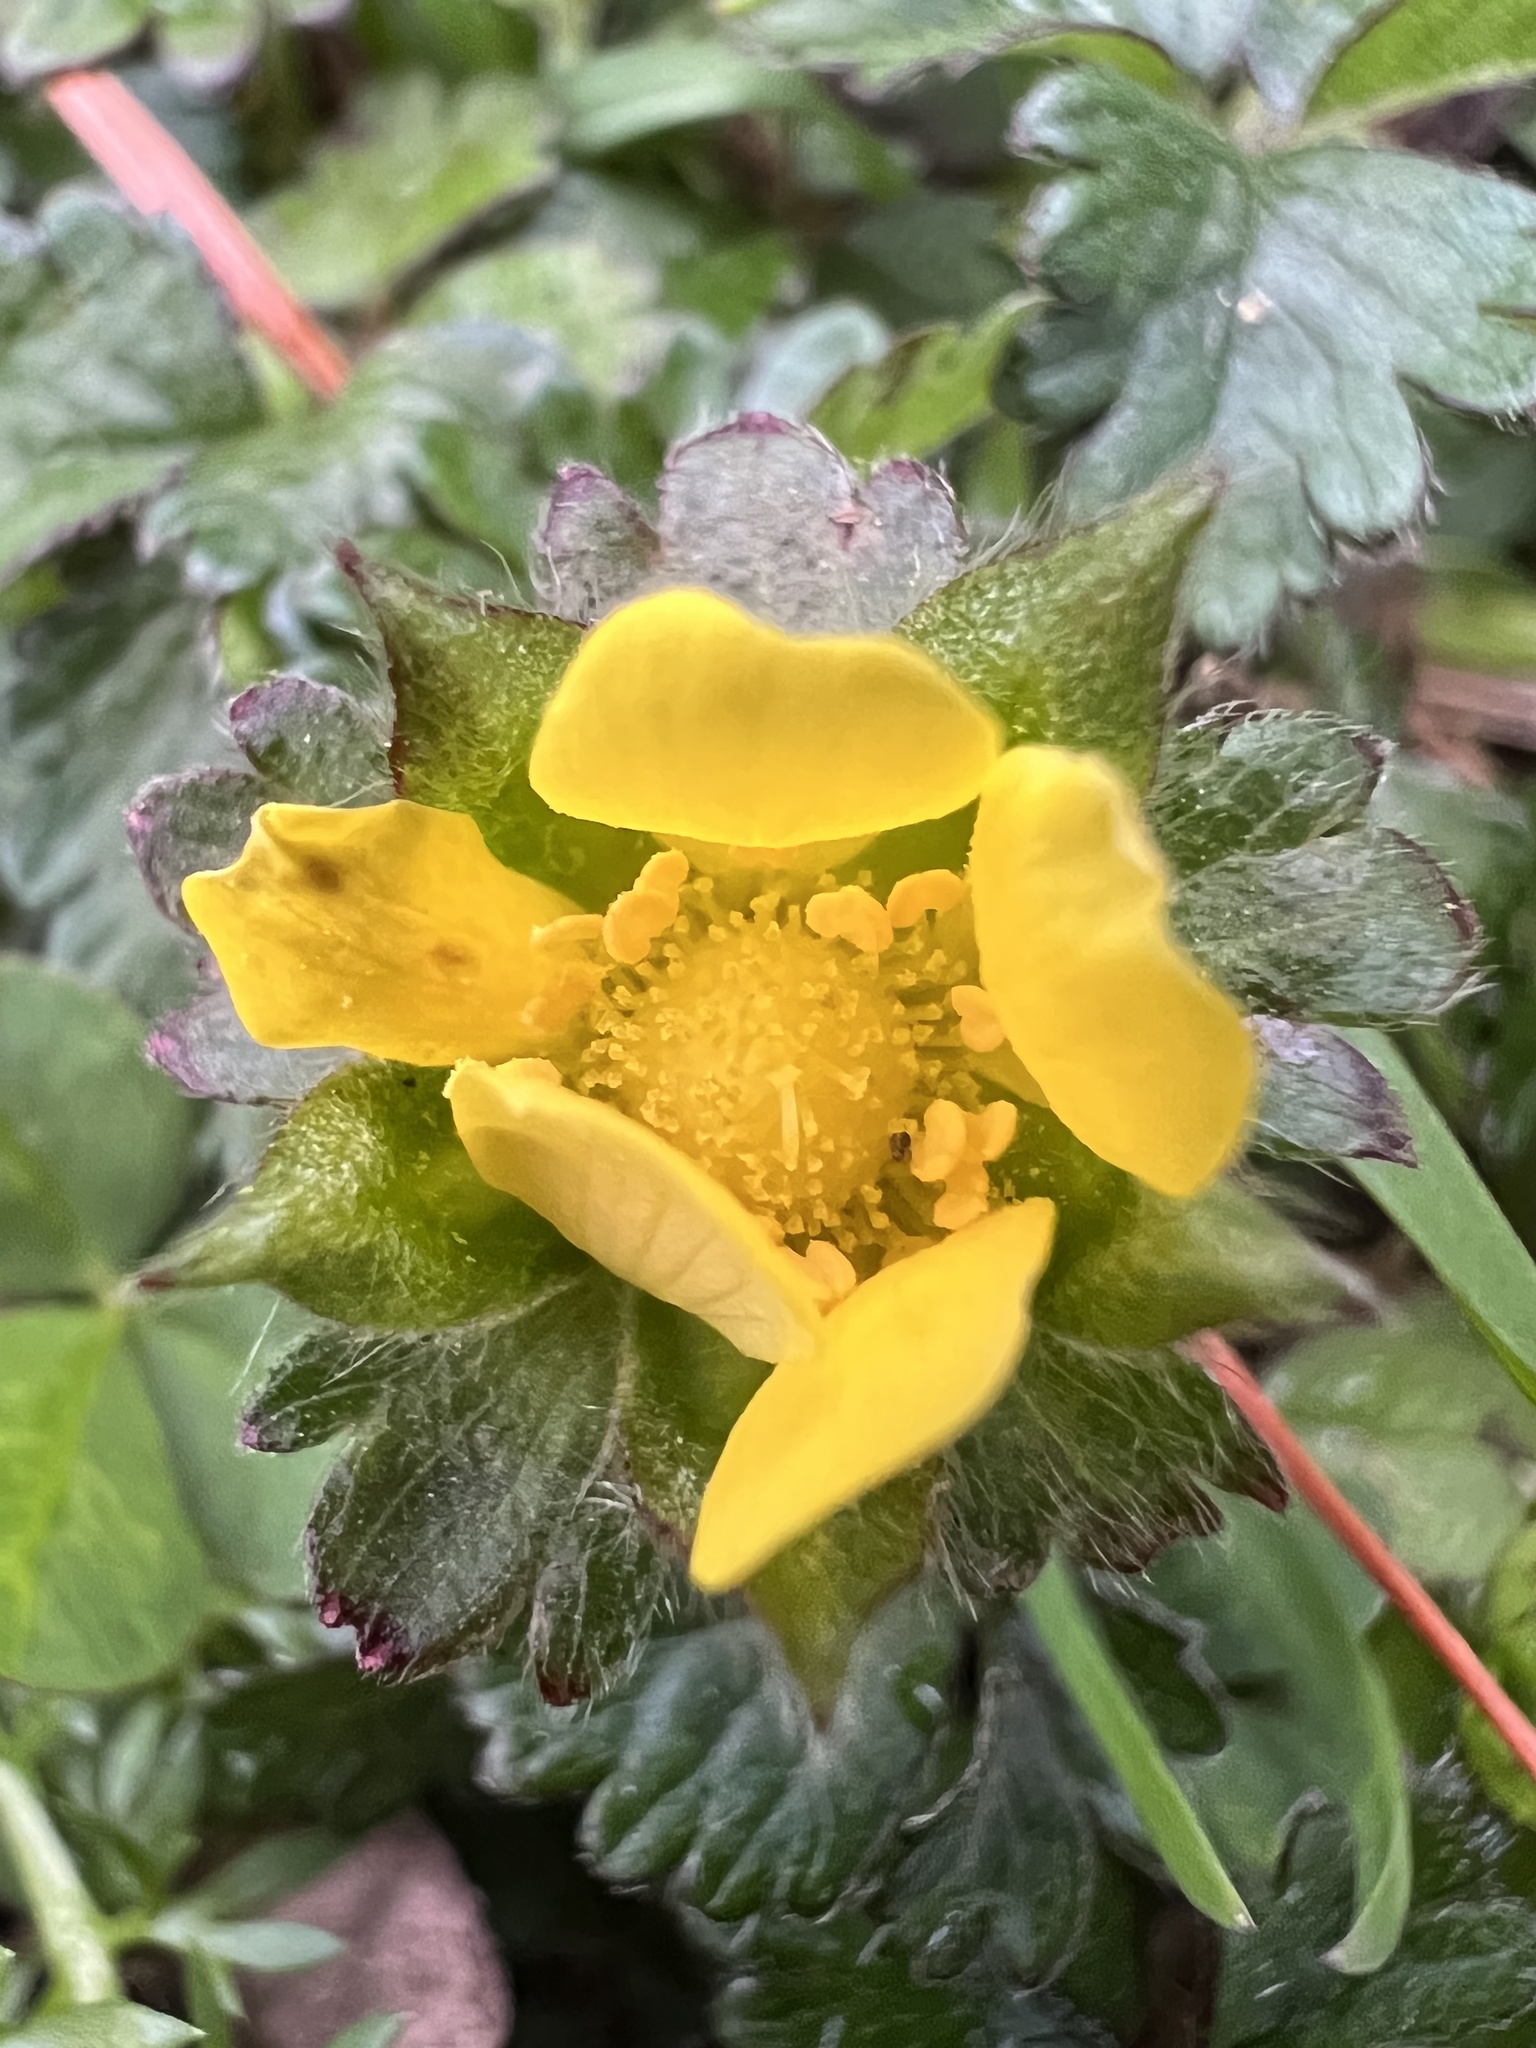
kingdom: Plantae
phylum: Tracheophyta
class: Magnoliopsida
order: Rosales
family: Rosaceae
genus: Potentilla
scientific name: Potentilla indica
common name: Yellow-flowered strawberry
